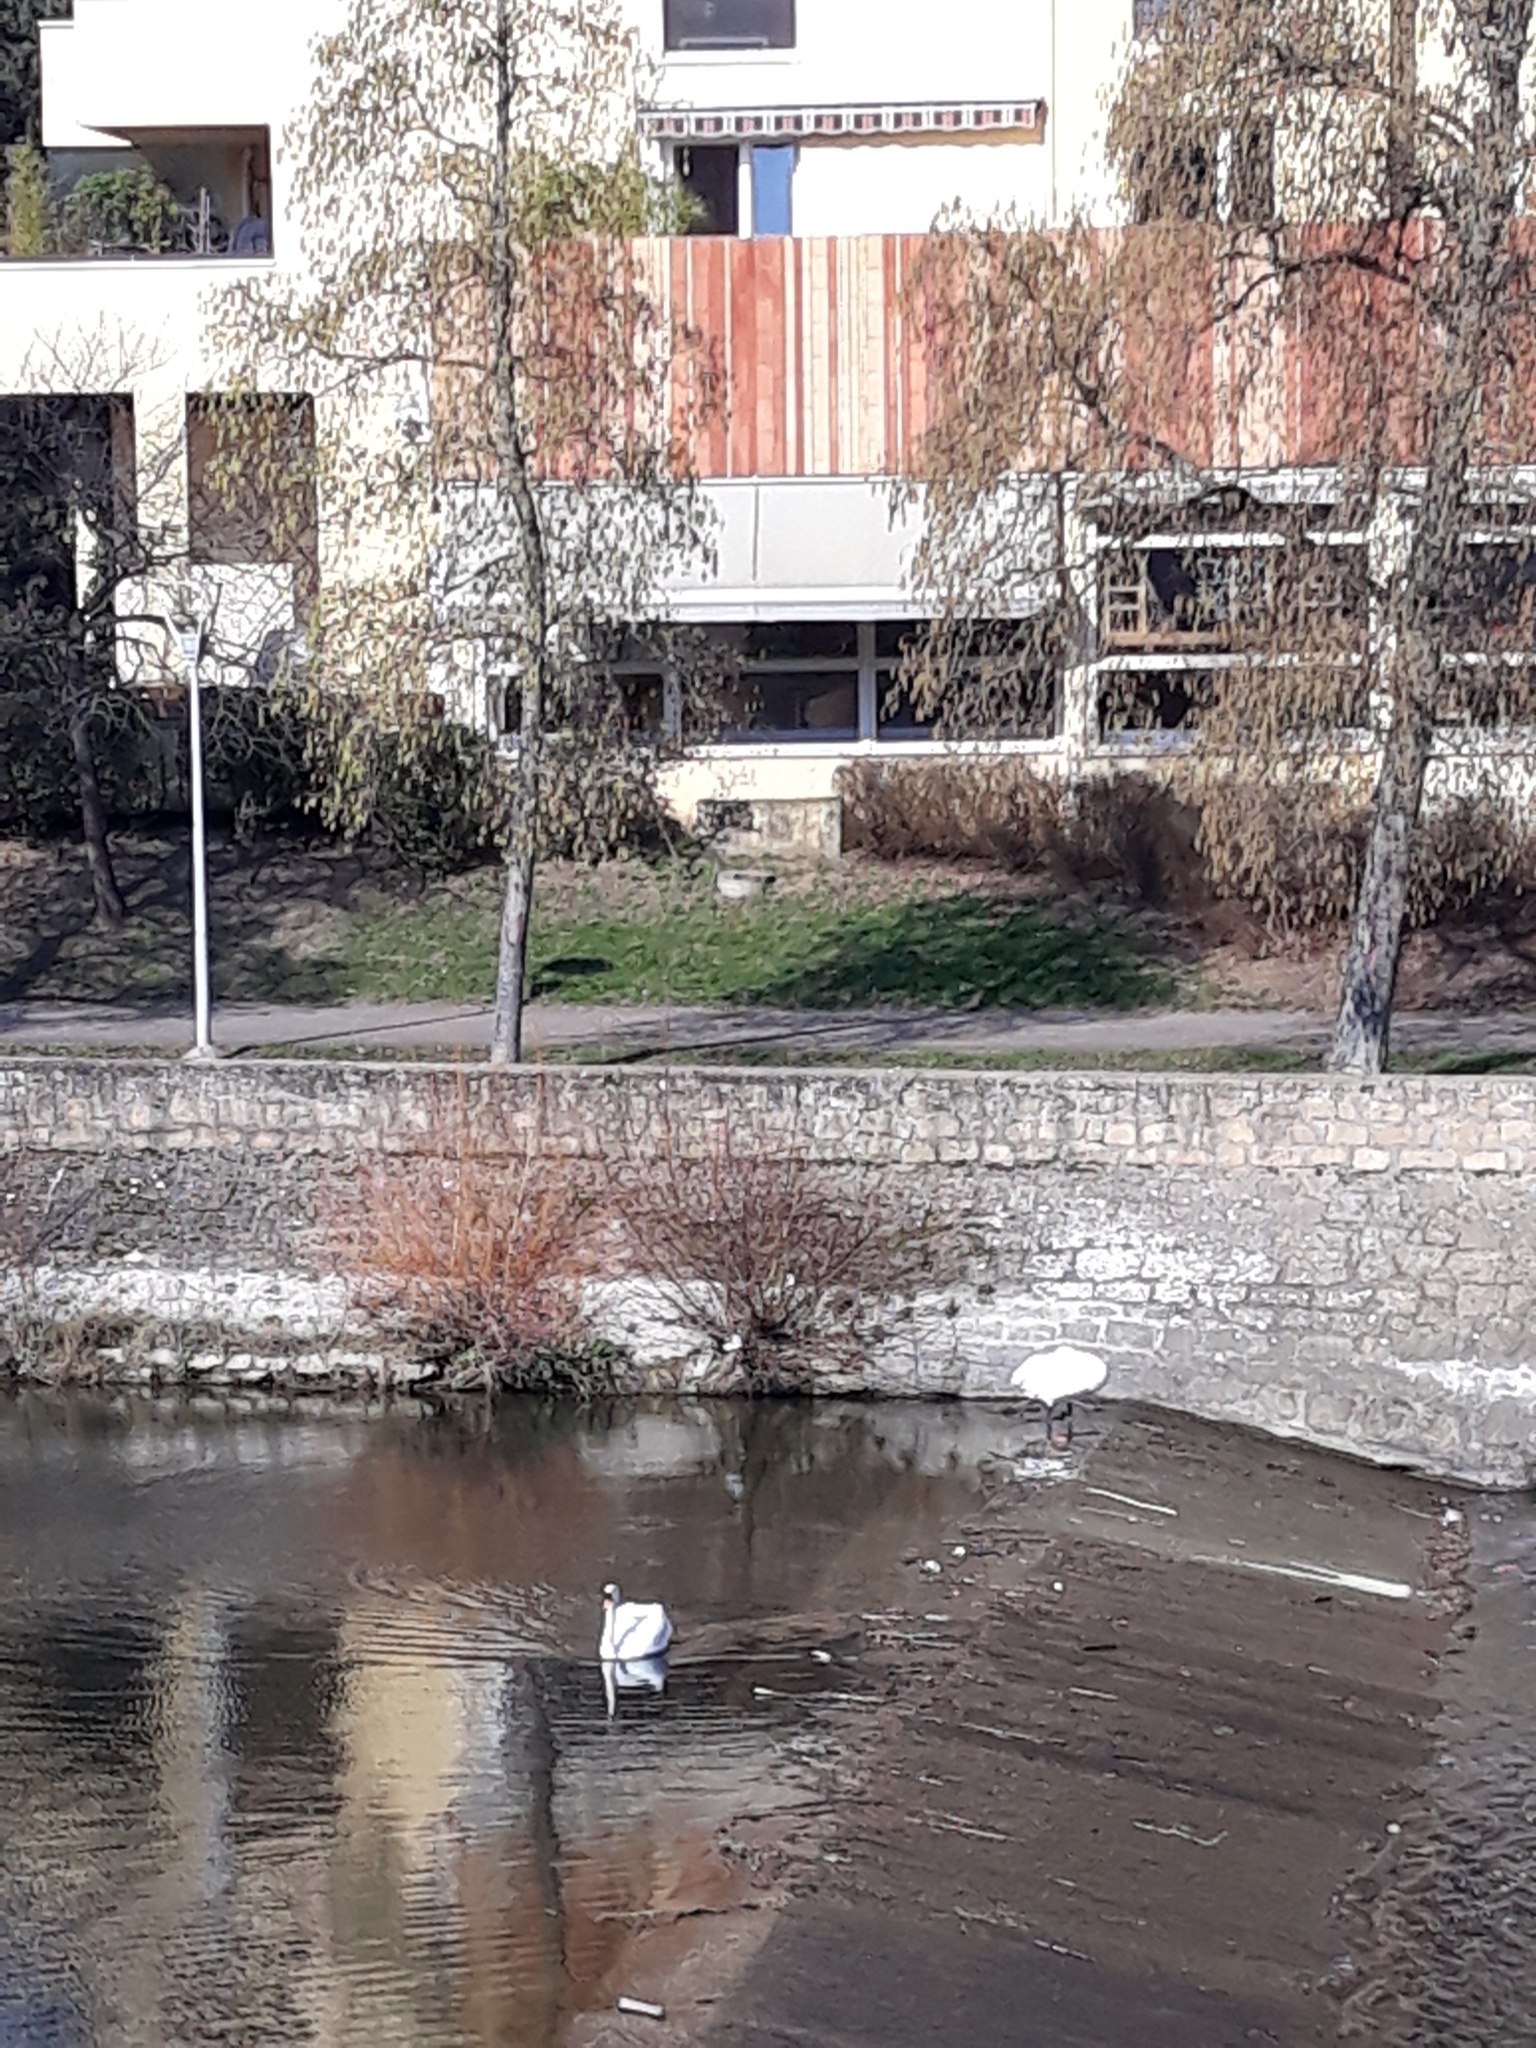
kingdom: Animalia
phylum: Chordata
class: Aves
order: Anseriformes
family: Anatidae
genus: Cygnus
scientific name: Cygnus olor
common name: Mute swan
